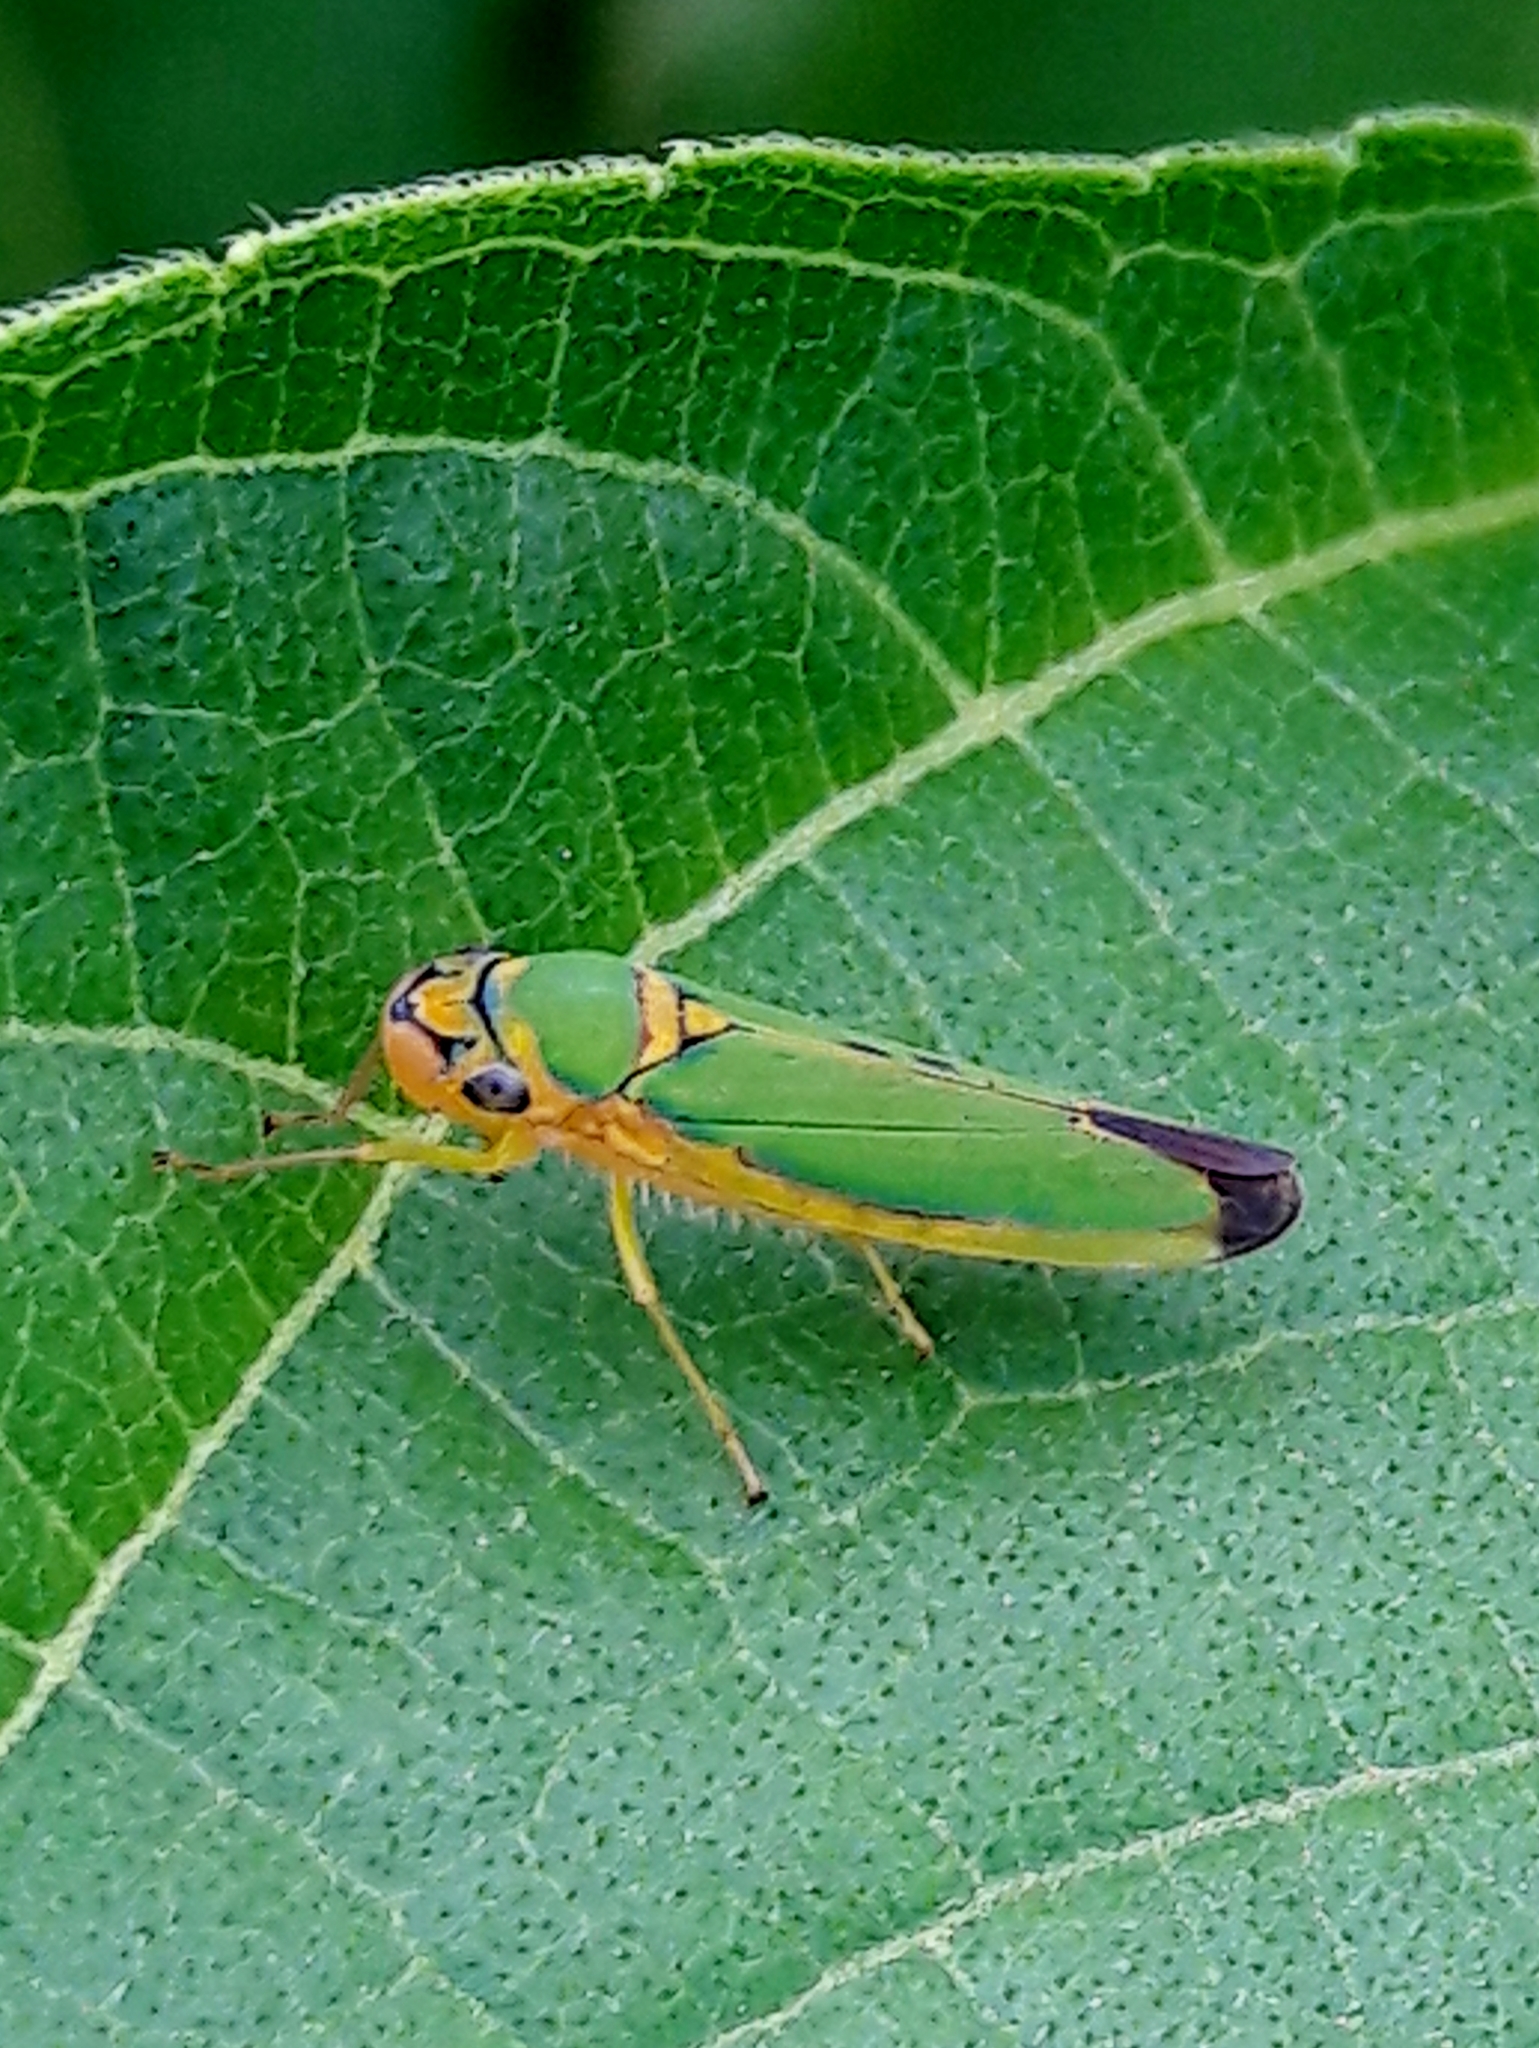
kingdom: Animalia
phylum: Arthropoda
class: Insecta
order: Hemiptera
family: Cicadellidae
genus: Catagonalia
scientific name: Catagonalia conjunctula
